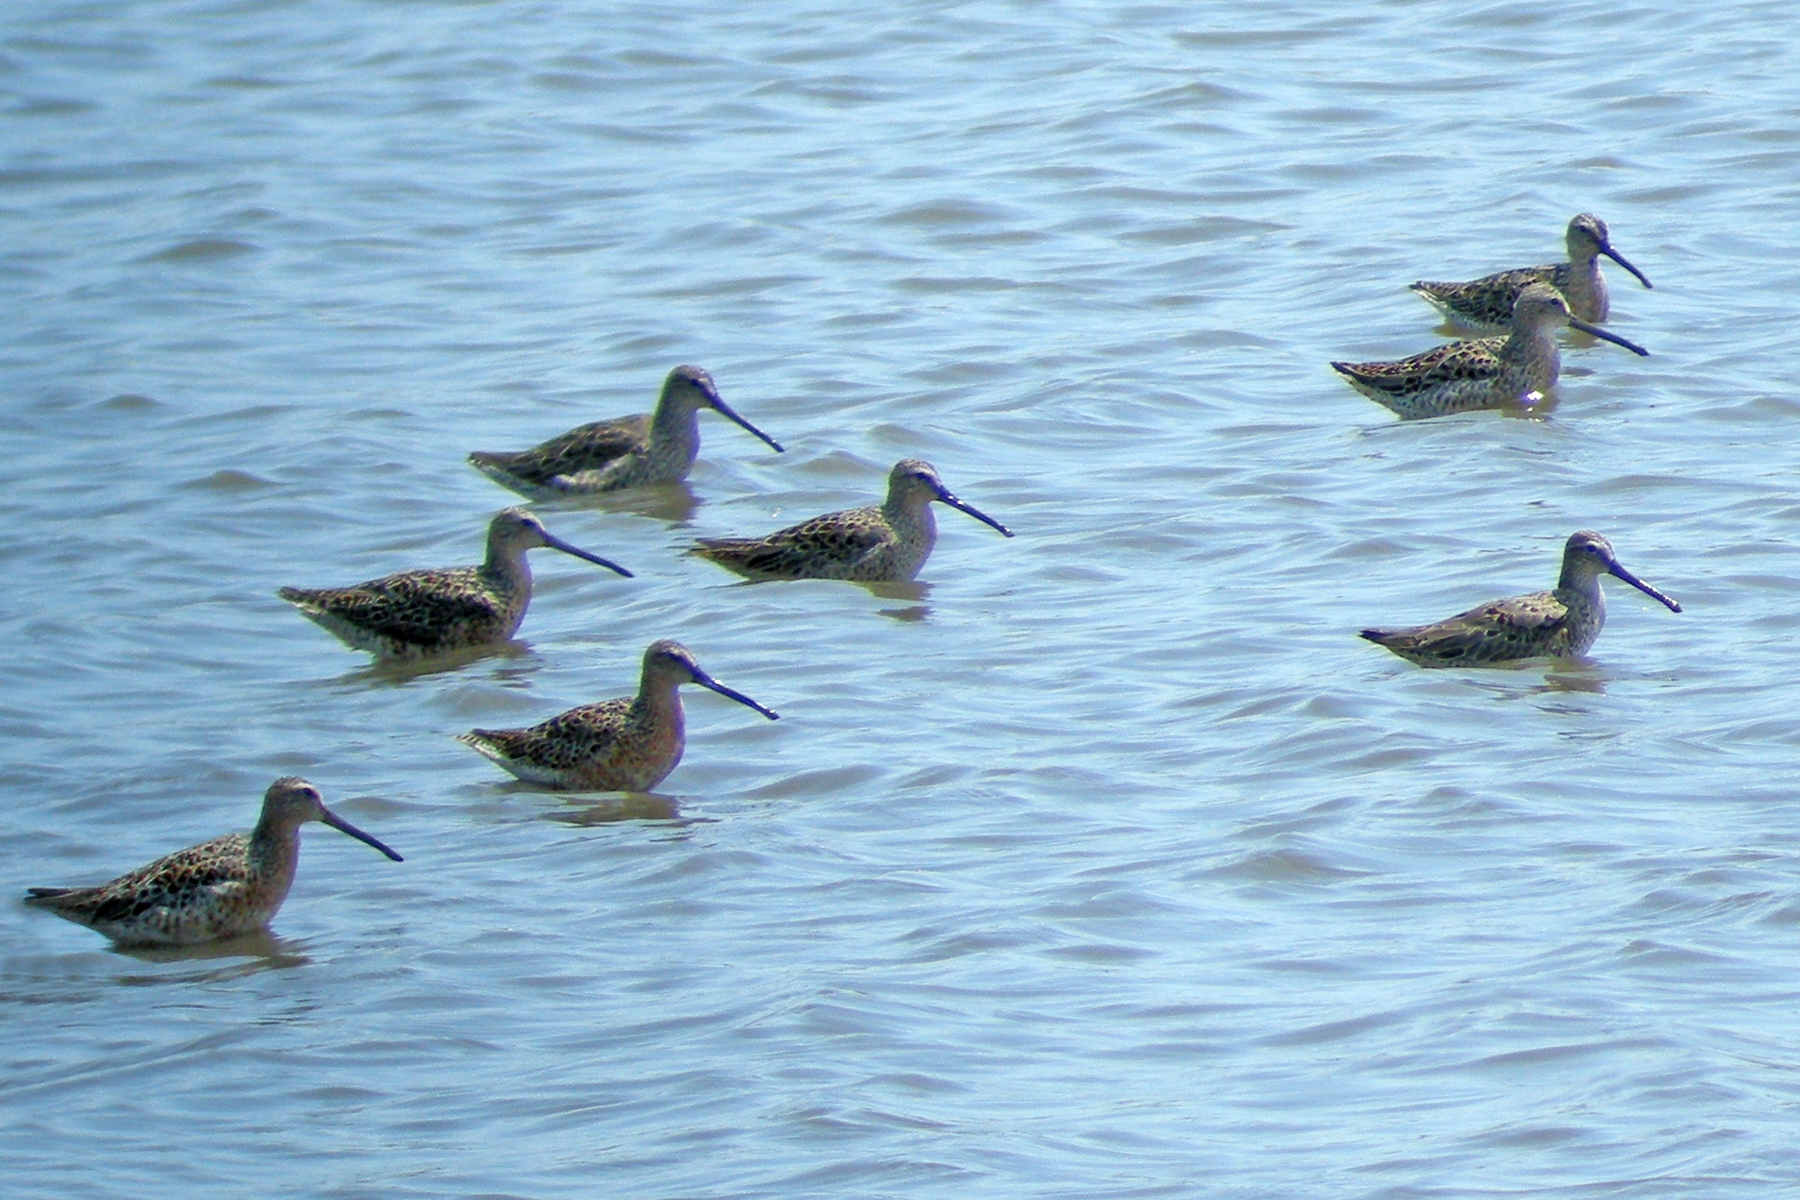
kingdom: Animalia
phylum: Chordata
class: Aves
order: Charadriiformes
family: Scolopacidae
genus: Limnodromus
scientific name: Limnodromus griseus
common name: Short-billed dowitcher
